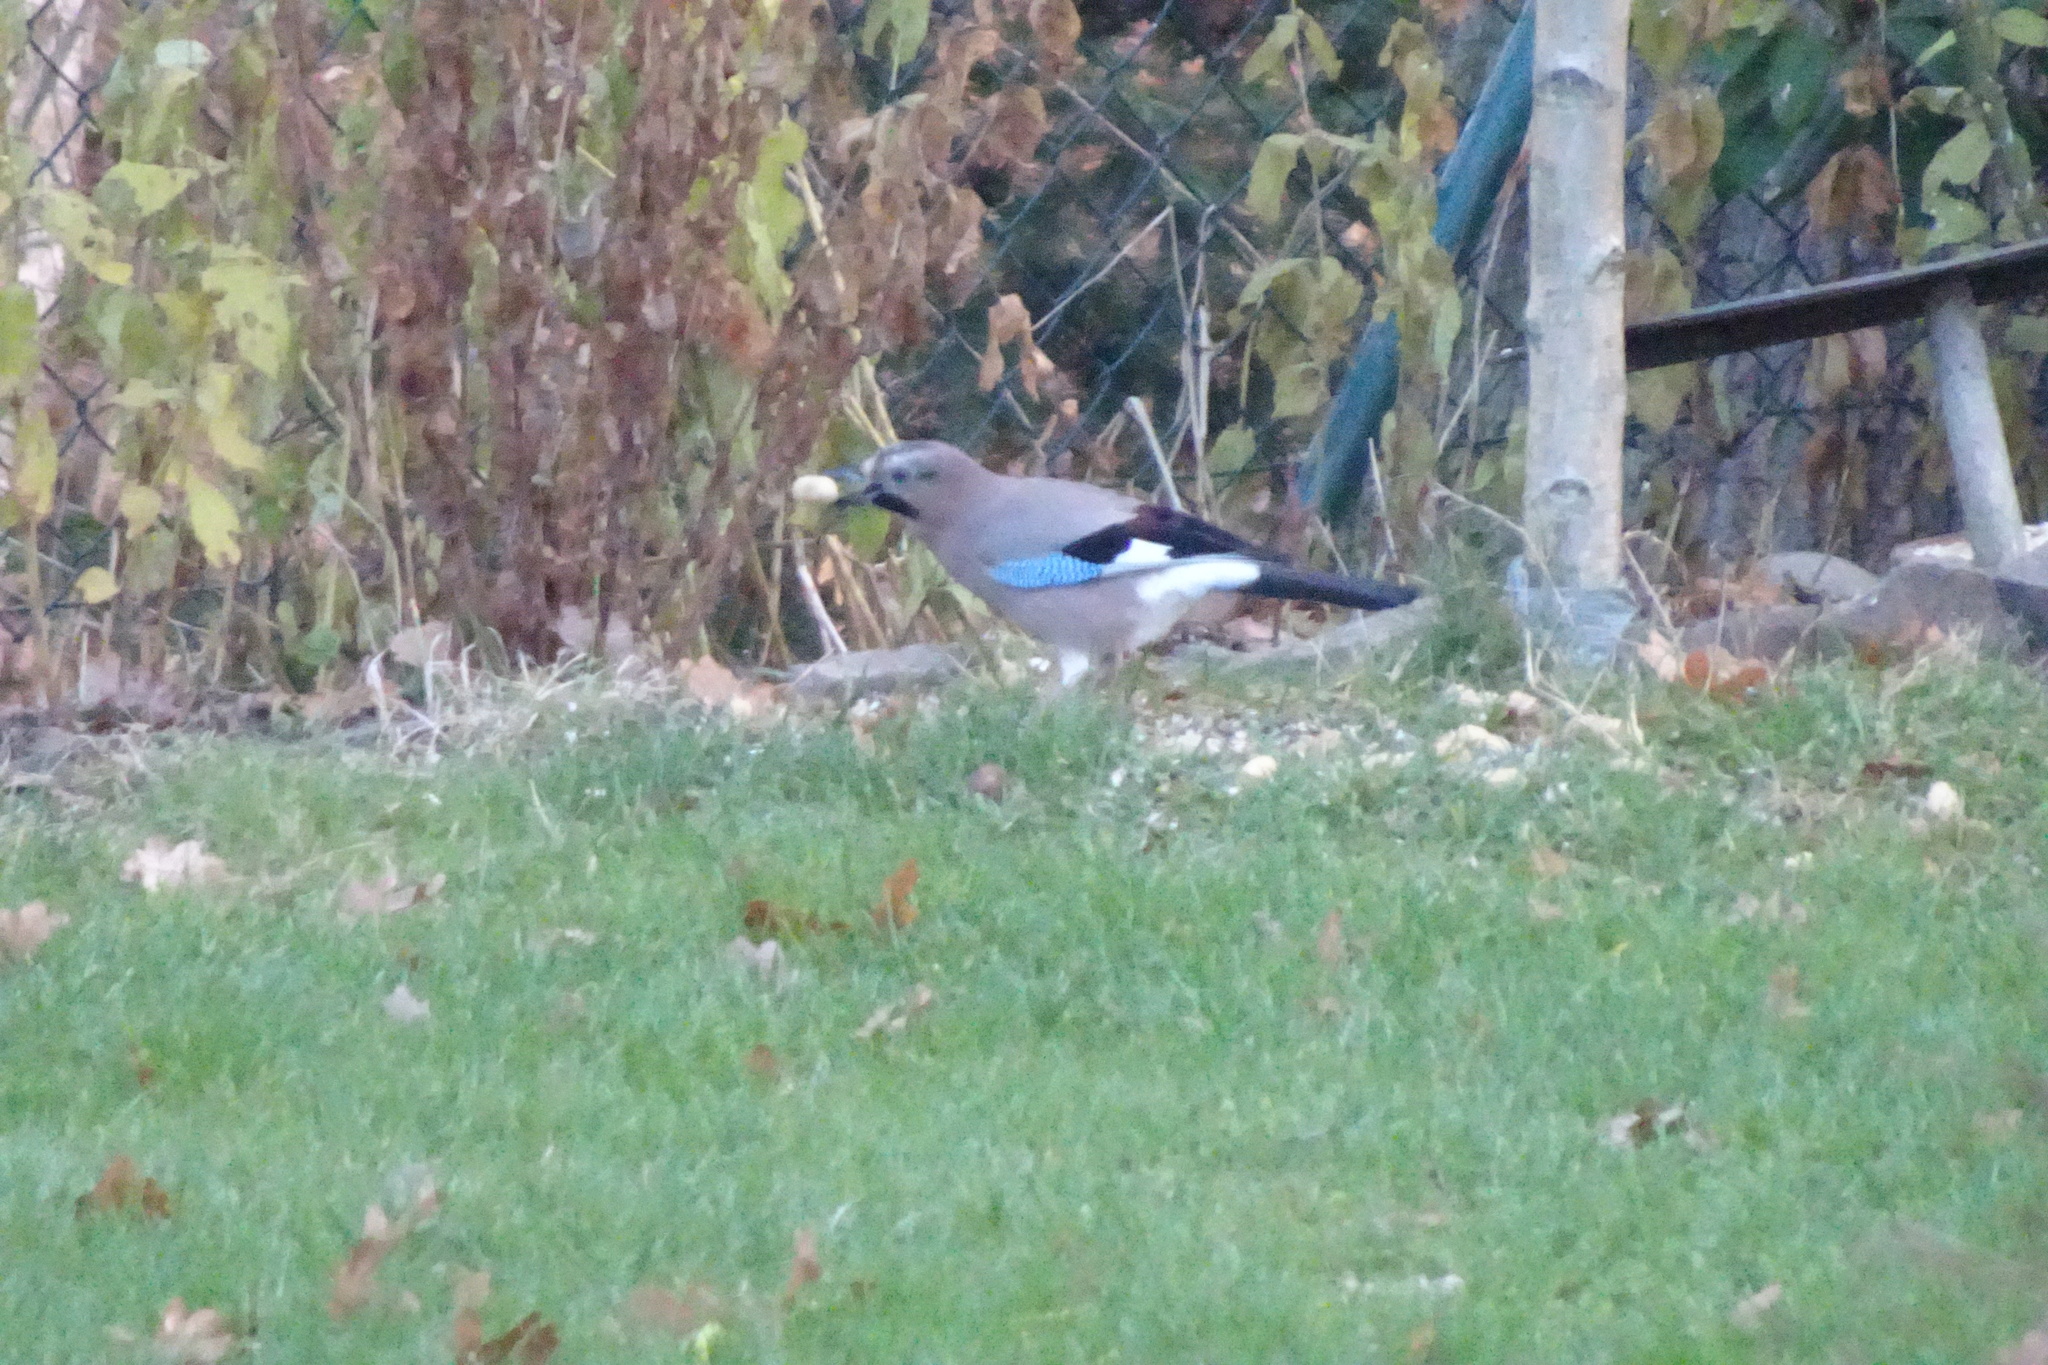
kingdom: Animalia
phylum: Chordata
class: Aves
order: Passeriformes
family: Corvidae
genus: Garrulus
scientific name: Garrulus glandarius
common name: Eurasian jay
